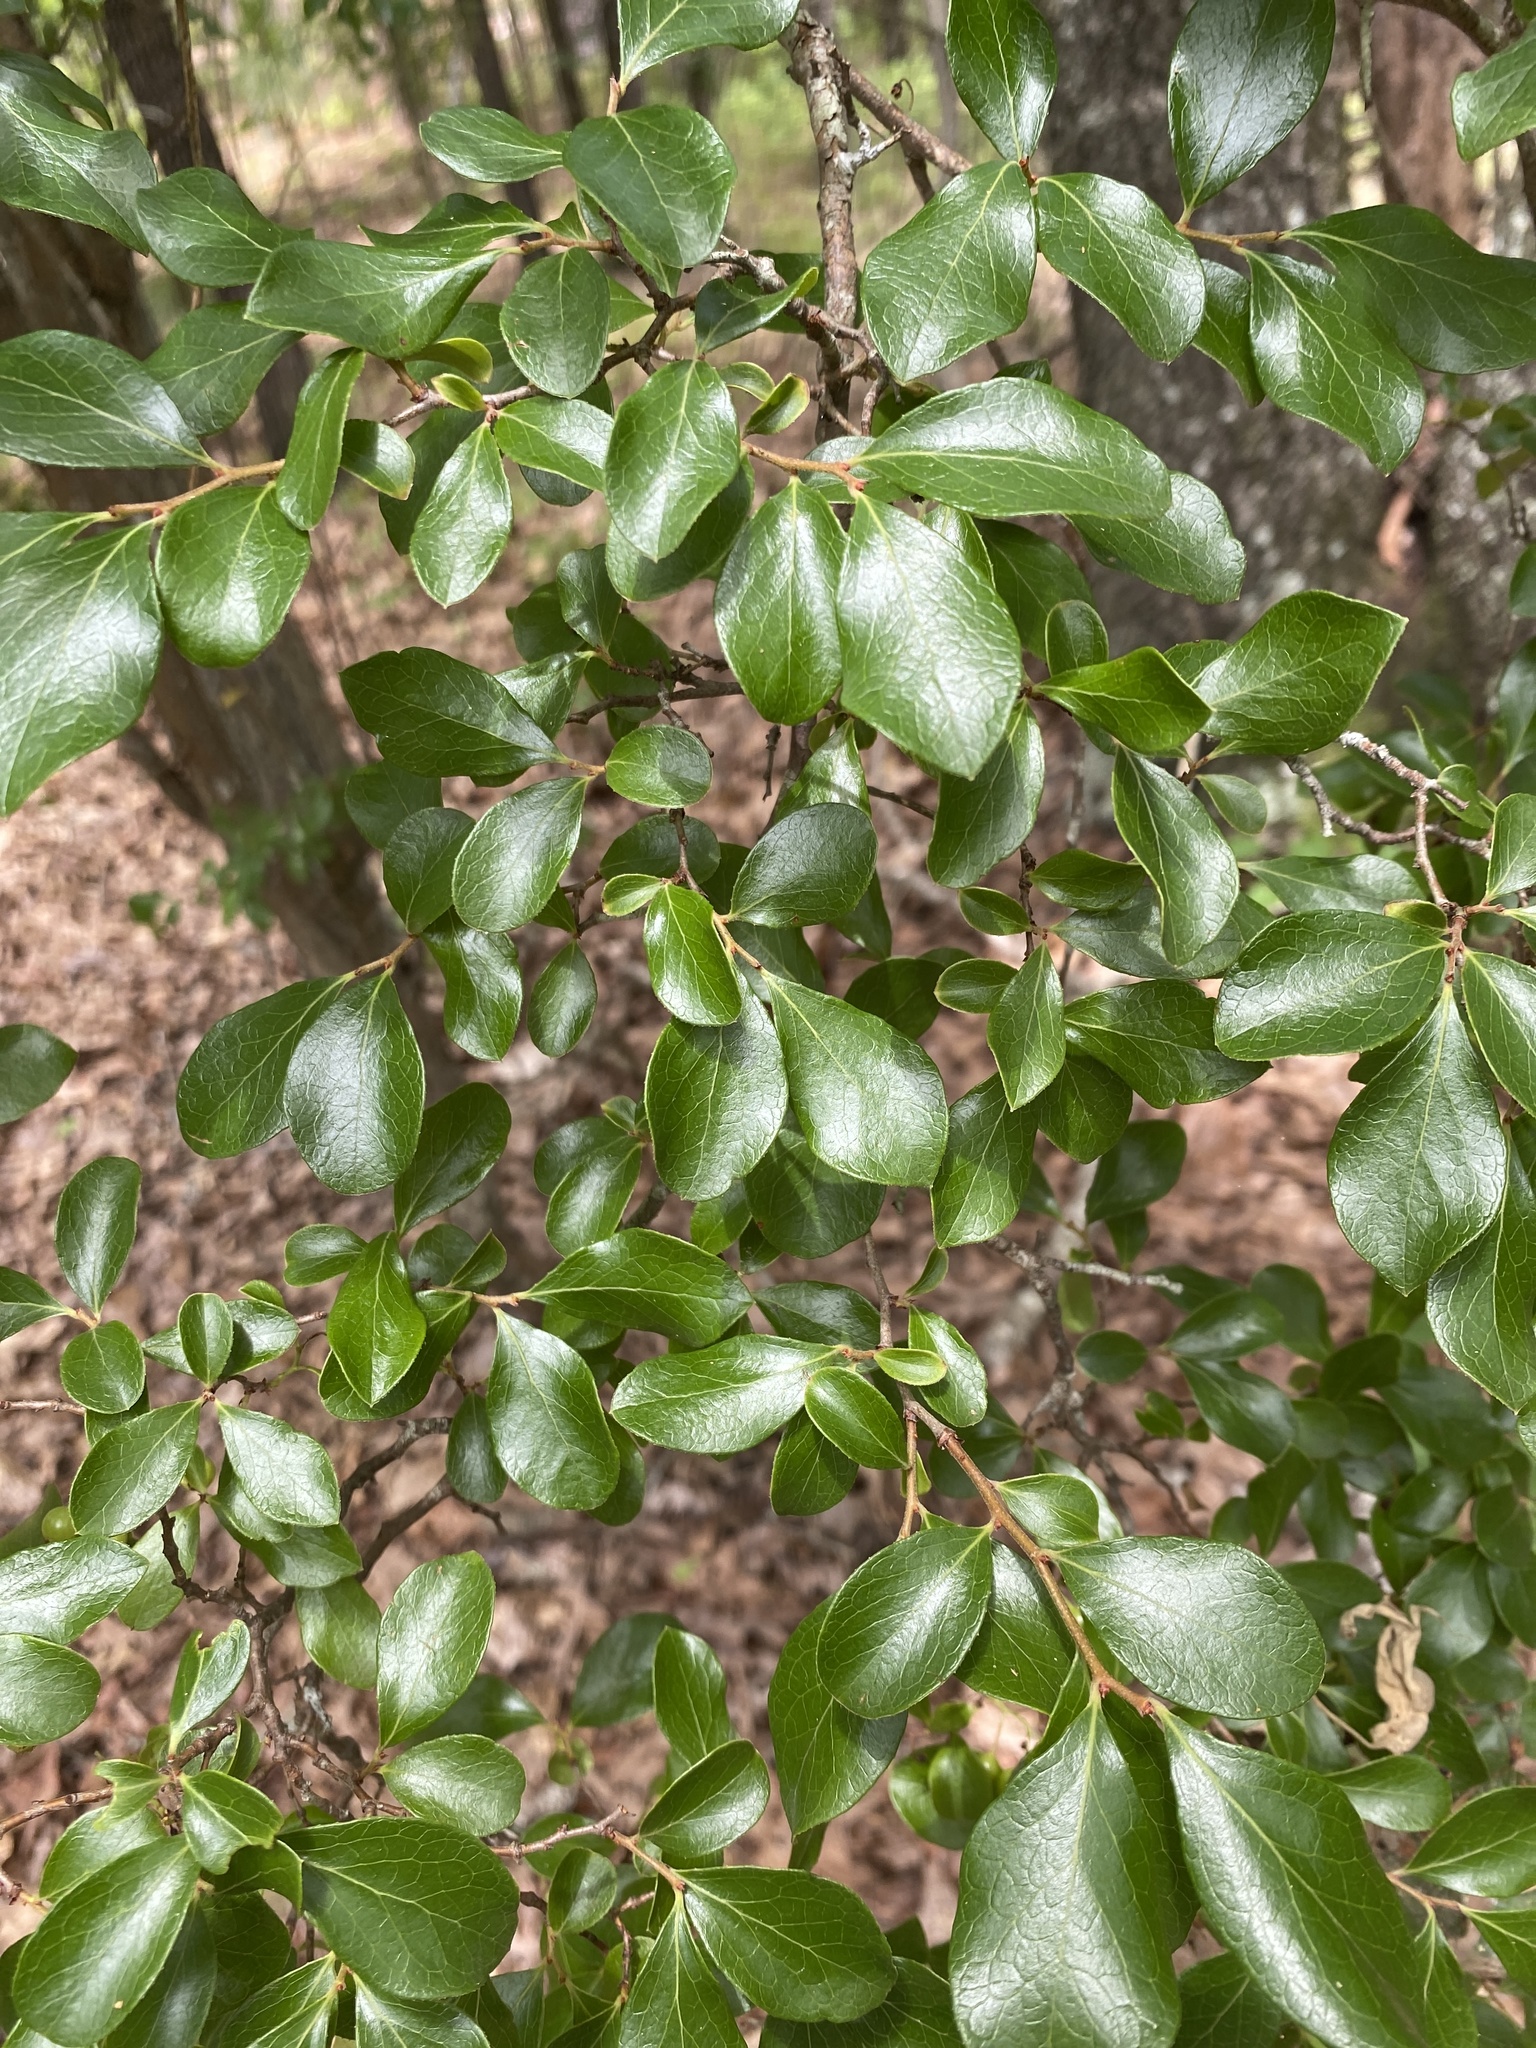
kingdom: Plantae
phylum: Tracheophyta
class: Magnoliopsida
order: Ericales
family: Ericaceae
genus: Vaccinium
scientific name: Vaccinium arboreum
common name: Farkleberry
